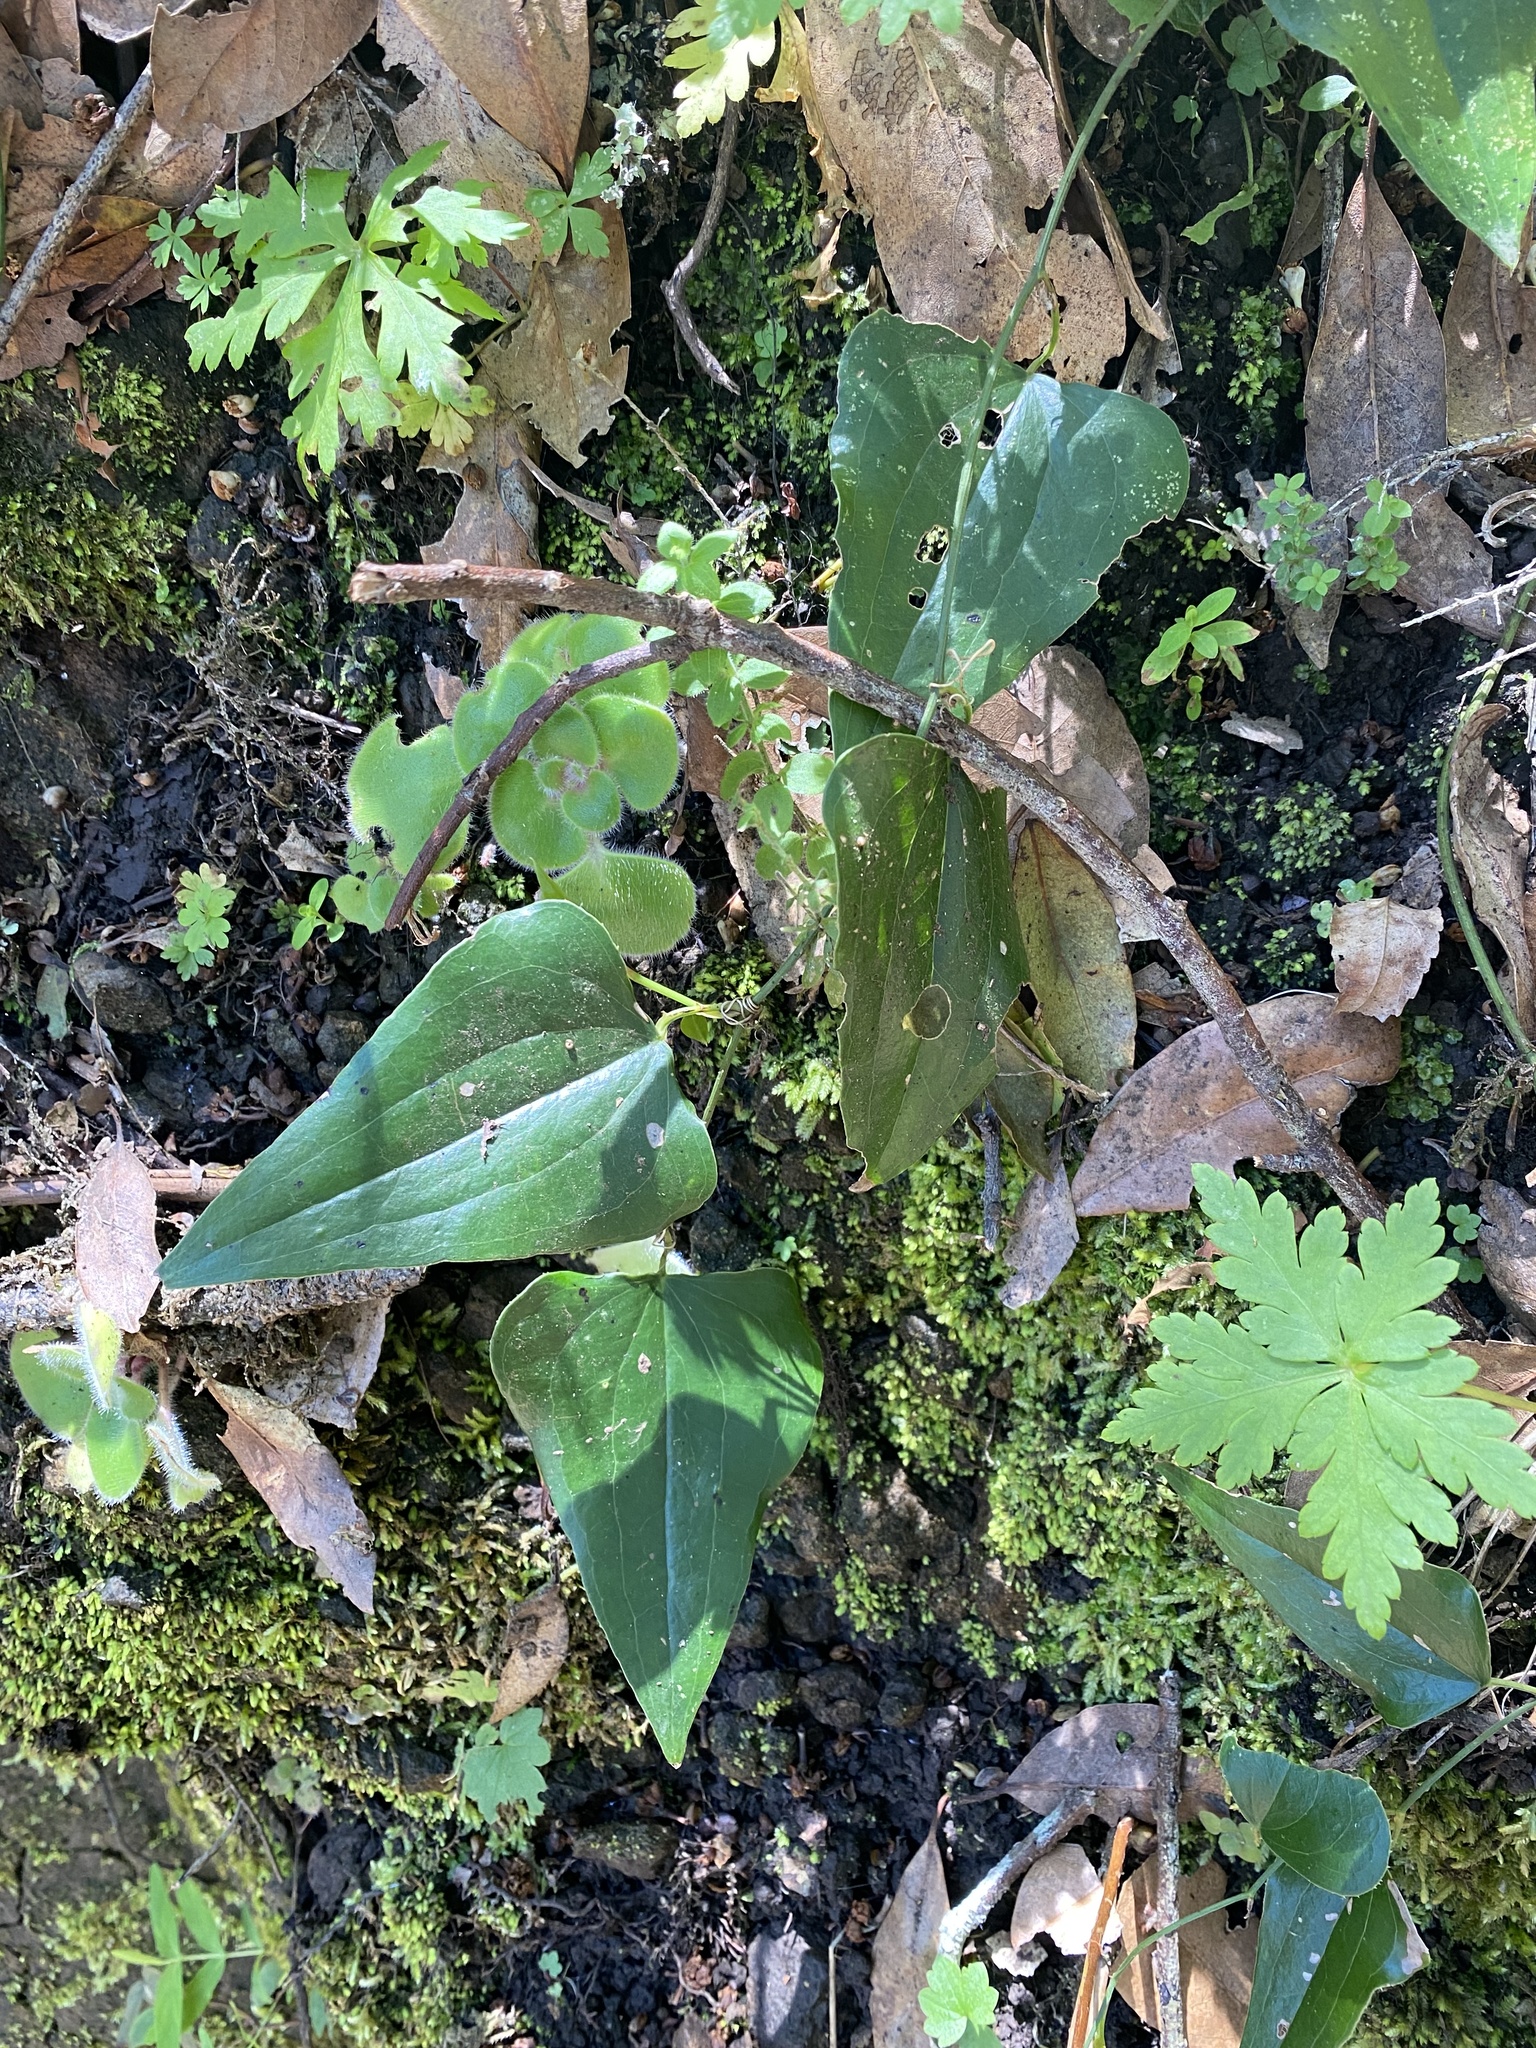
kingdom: Plantae
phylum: Tracheophyta
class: Liliopsida
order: Liliales
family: Smilacaceae
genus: Smilax
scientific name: Smilax aspera
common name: Common smilax
